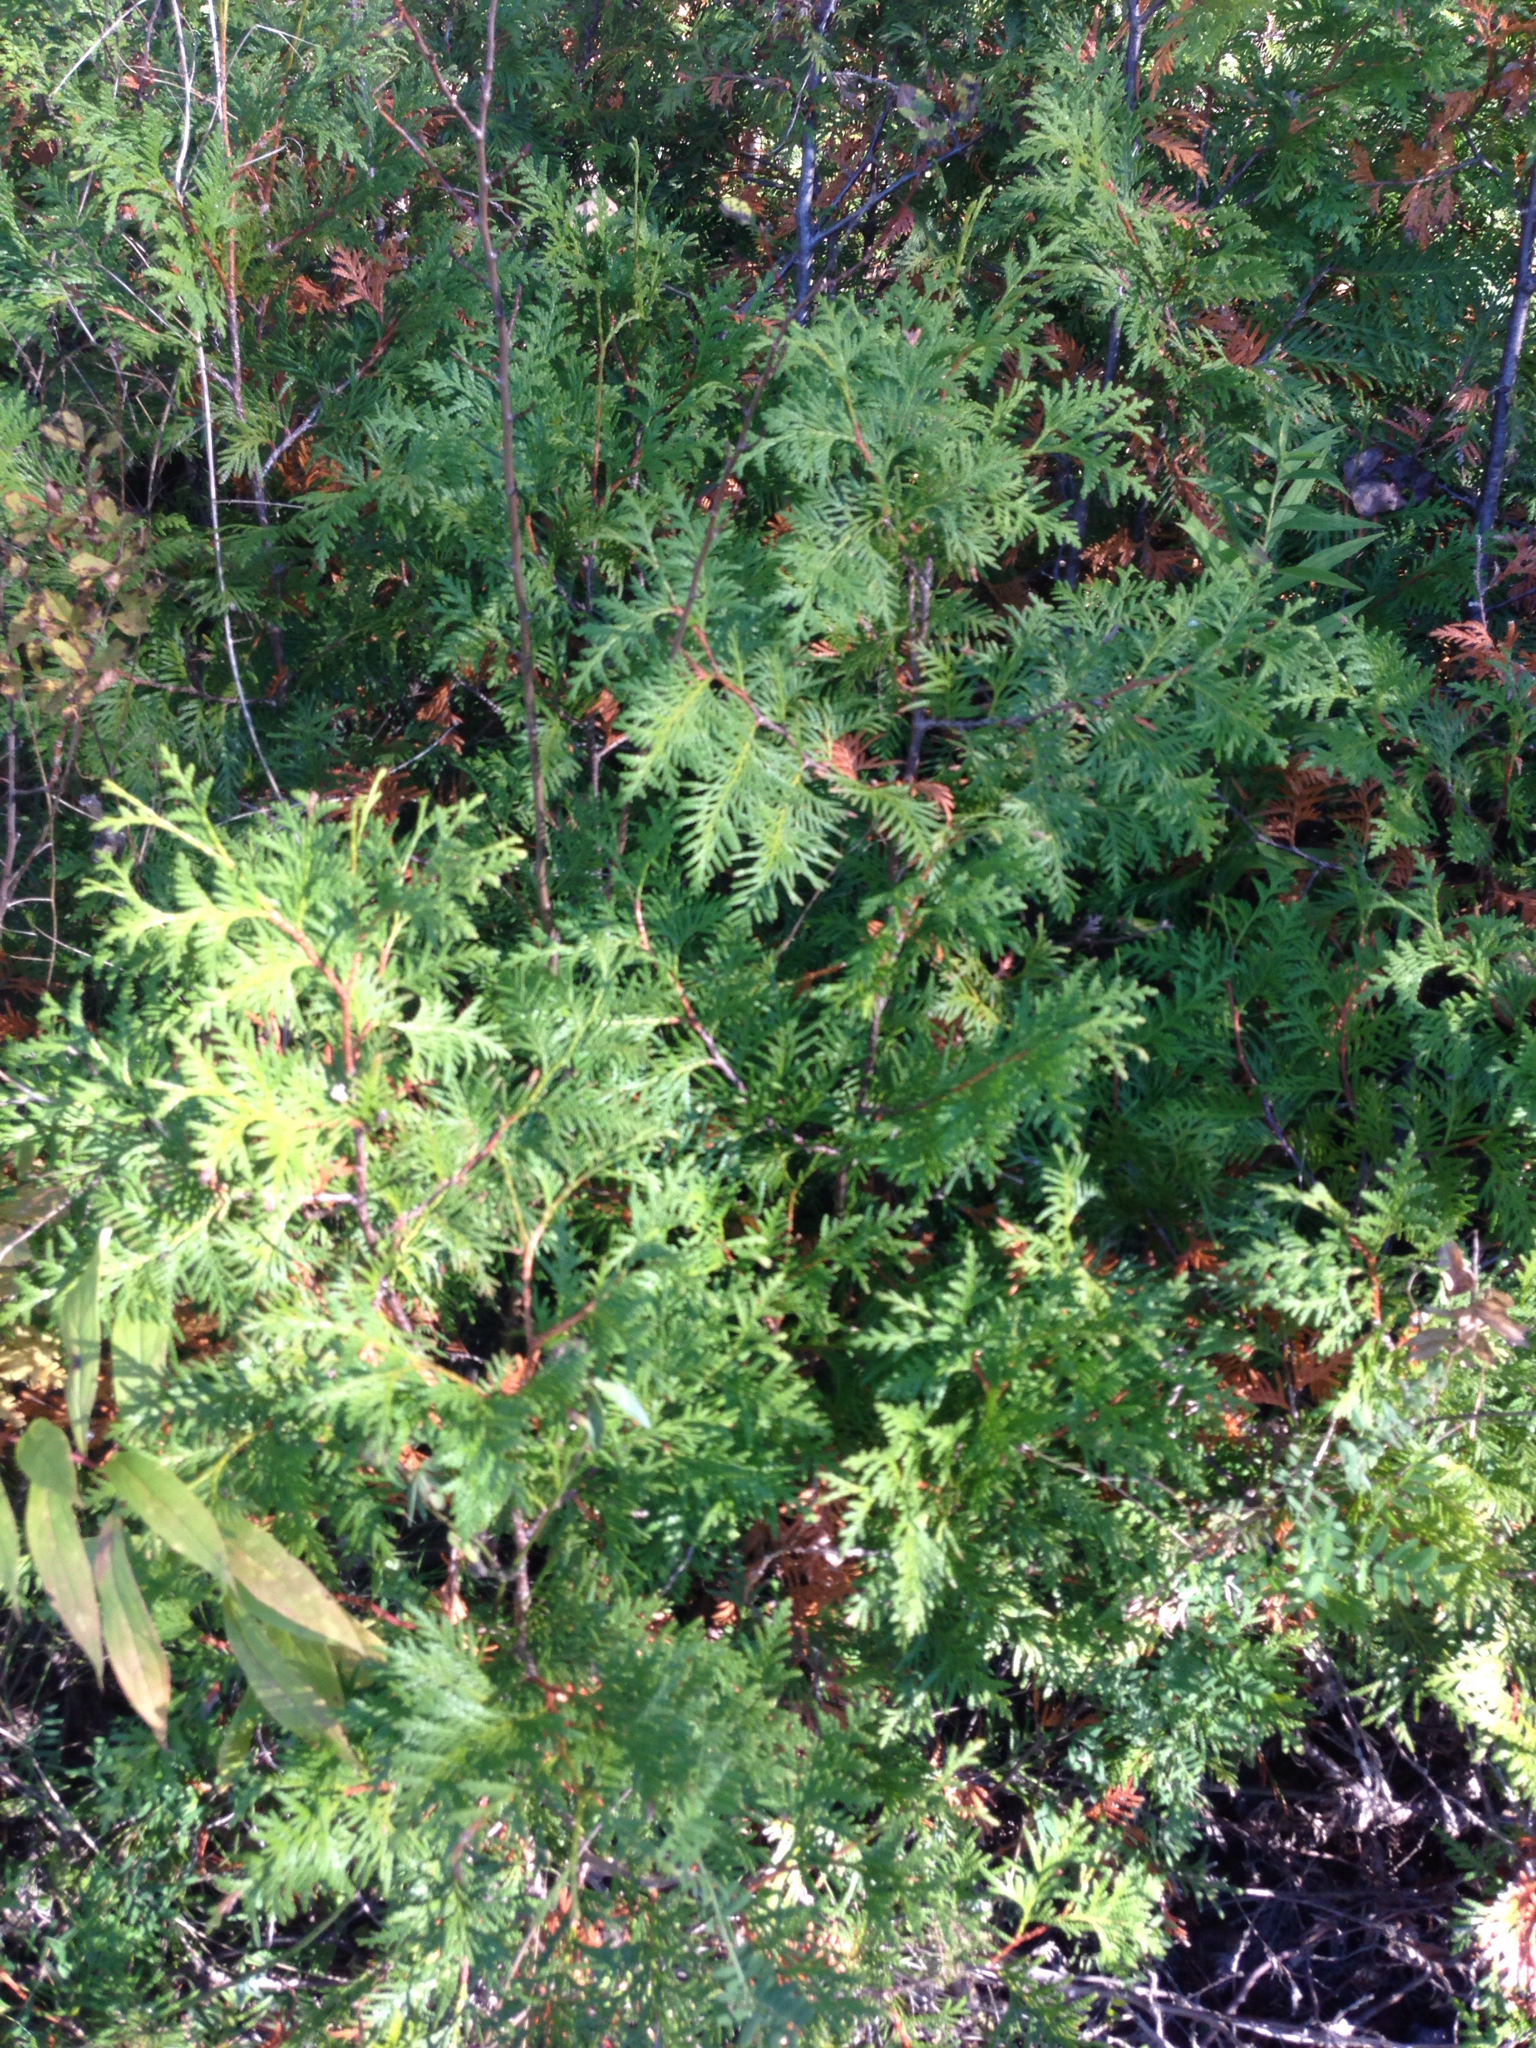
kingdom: Plantae
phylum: Tracheophyta
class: Pinopsida
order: Pinales
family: Cupressaceae
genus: Thuja
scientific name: Thuja occidentalis
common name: Northern white-cedar
